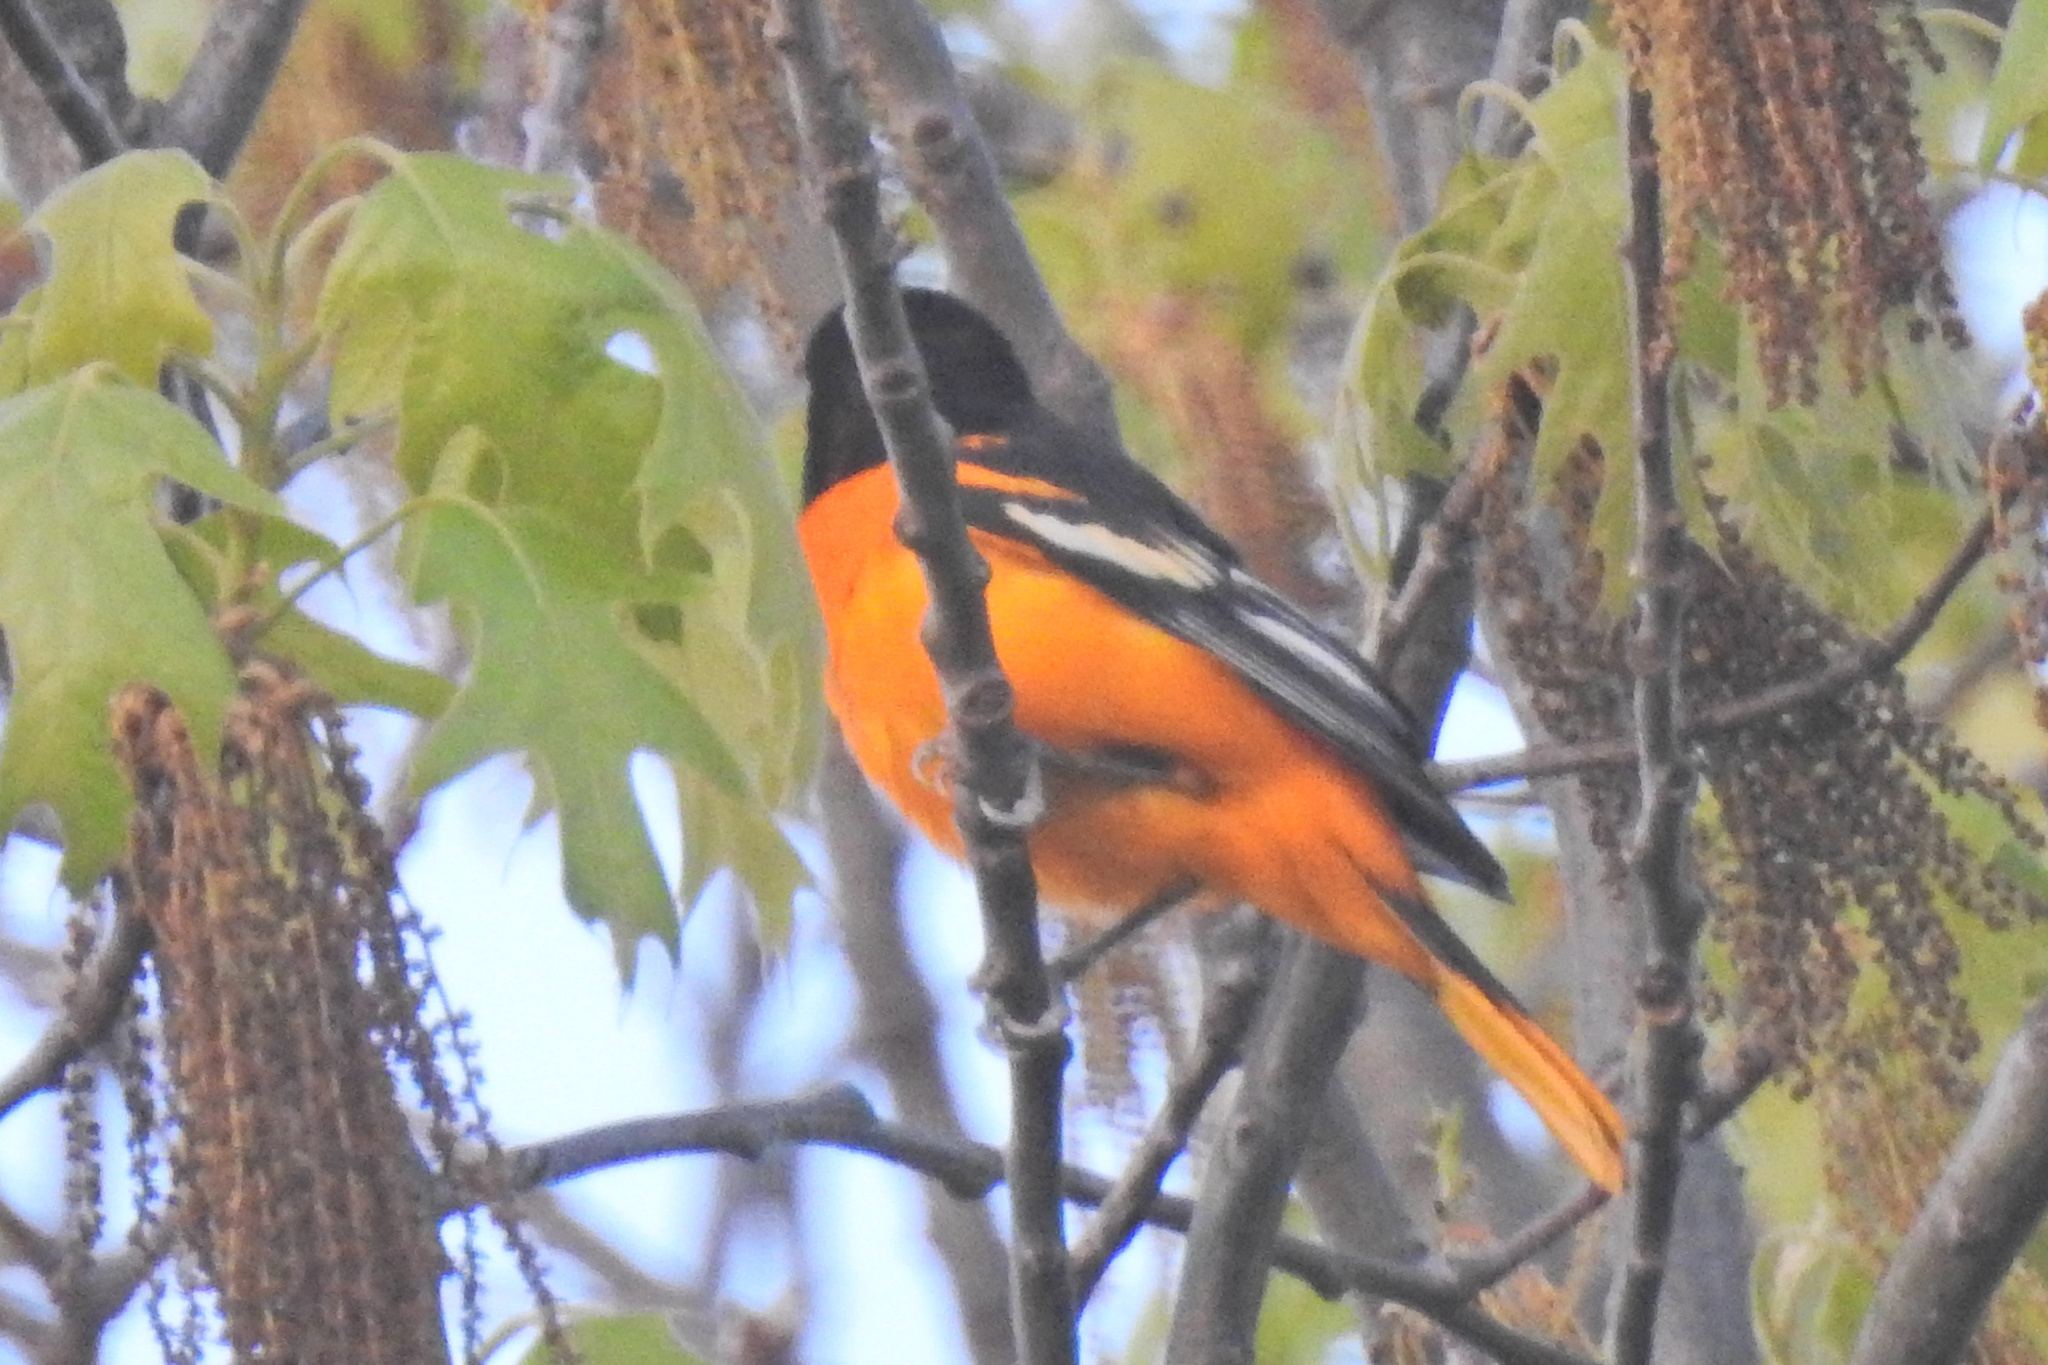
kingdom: Animalia
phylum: Chordata
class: Aves
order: Passeriformes
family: Icteridae
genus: Icterus
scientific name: Icterus galbula
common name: Baltimore oriole
